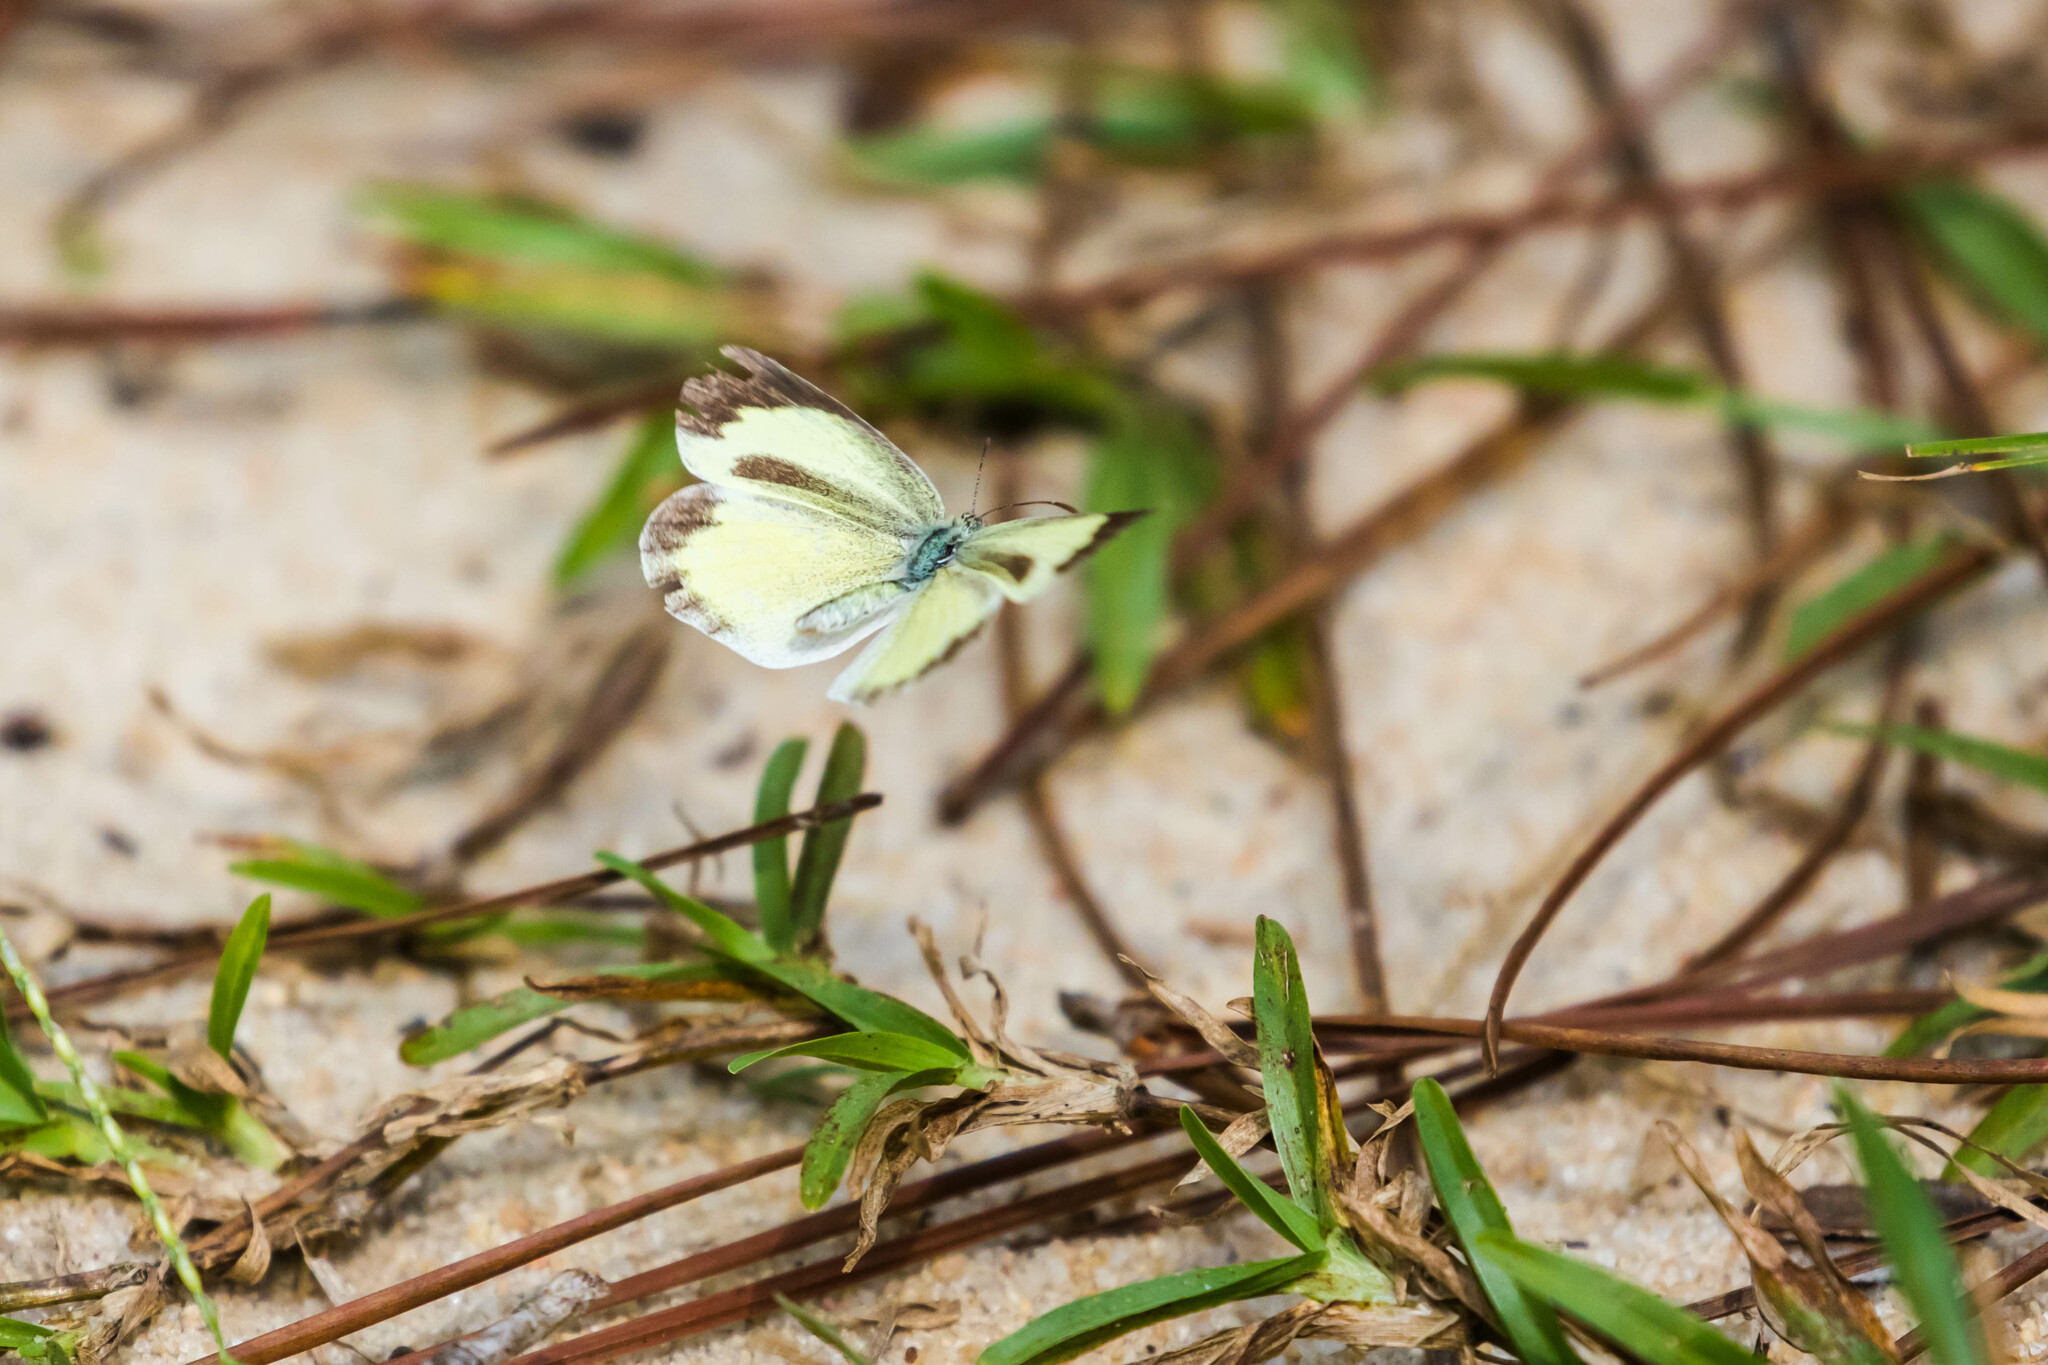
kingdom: Animalia
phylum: Arthropoda
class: Insecta
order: Lepidoptera
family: Pieridae
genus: Eurema
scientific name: Eurema daira
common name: Barred sulphur
